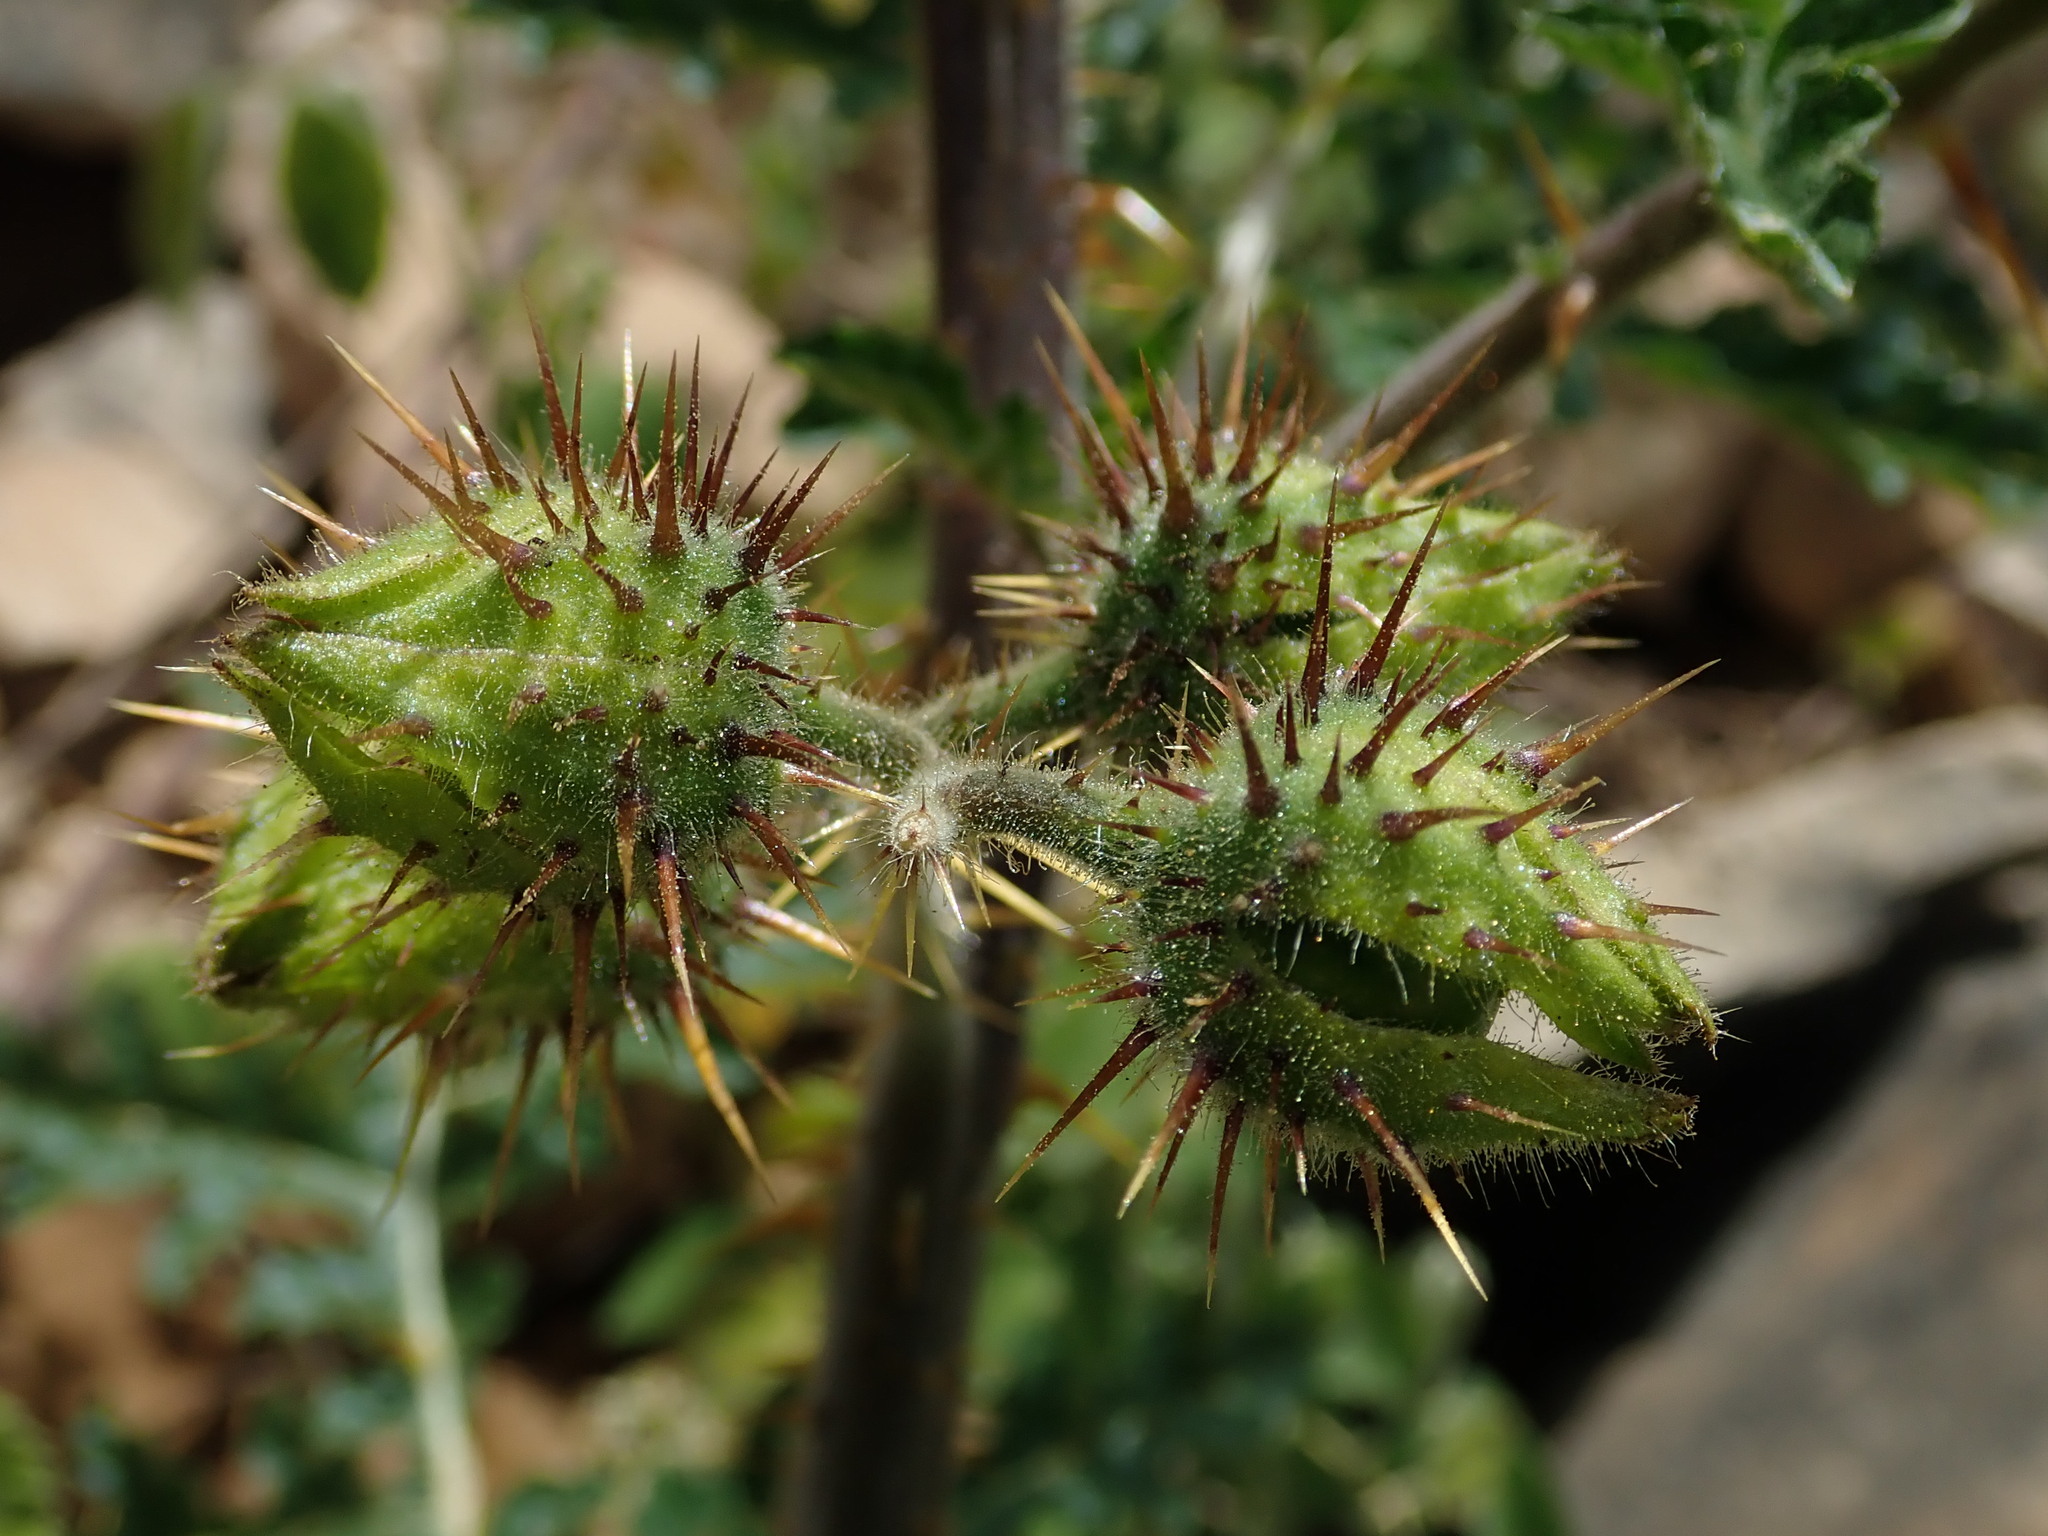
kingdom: Plantae
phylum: Tracheophyta
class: Magnoliopsida
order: Solanales
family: Solanaceae
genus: Solanum
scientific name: Solanum sisymbriifolium
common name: Red buffalo-bur
